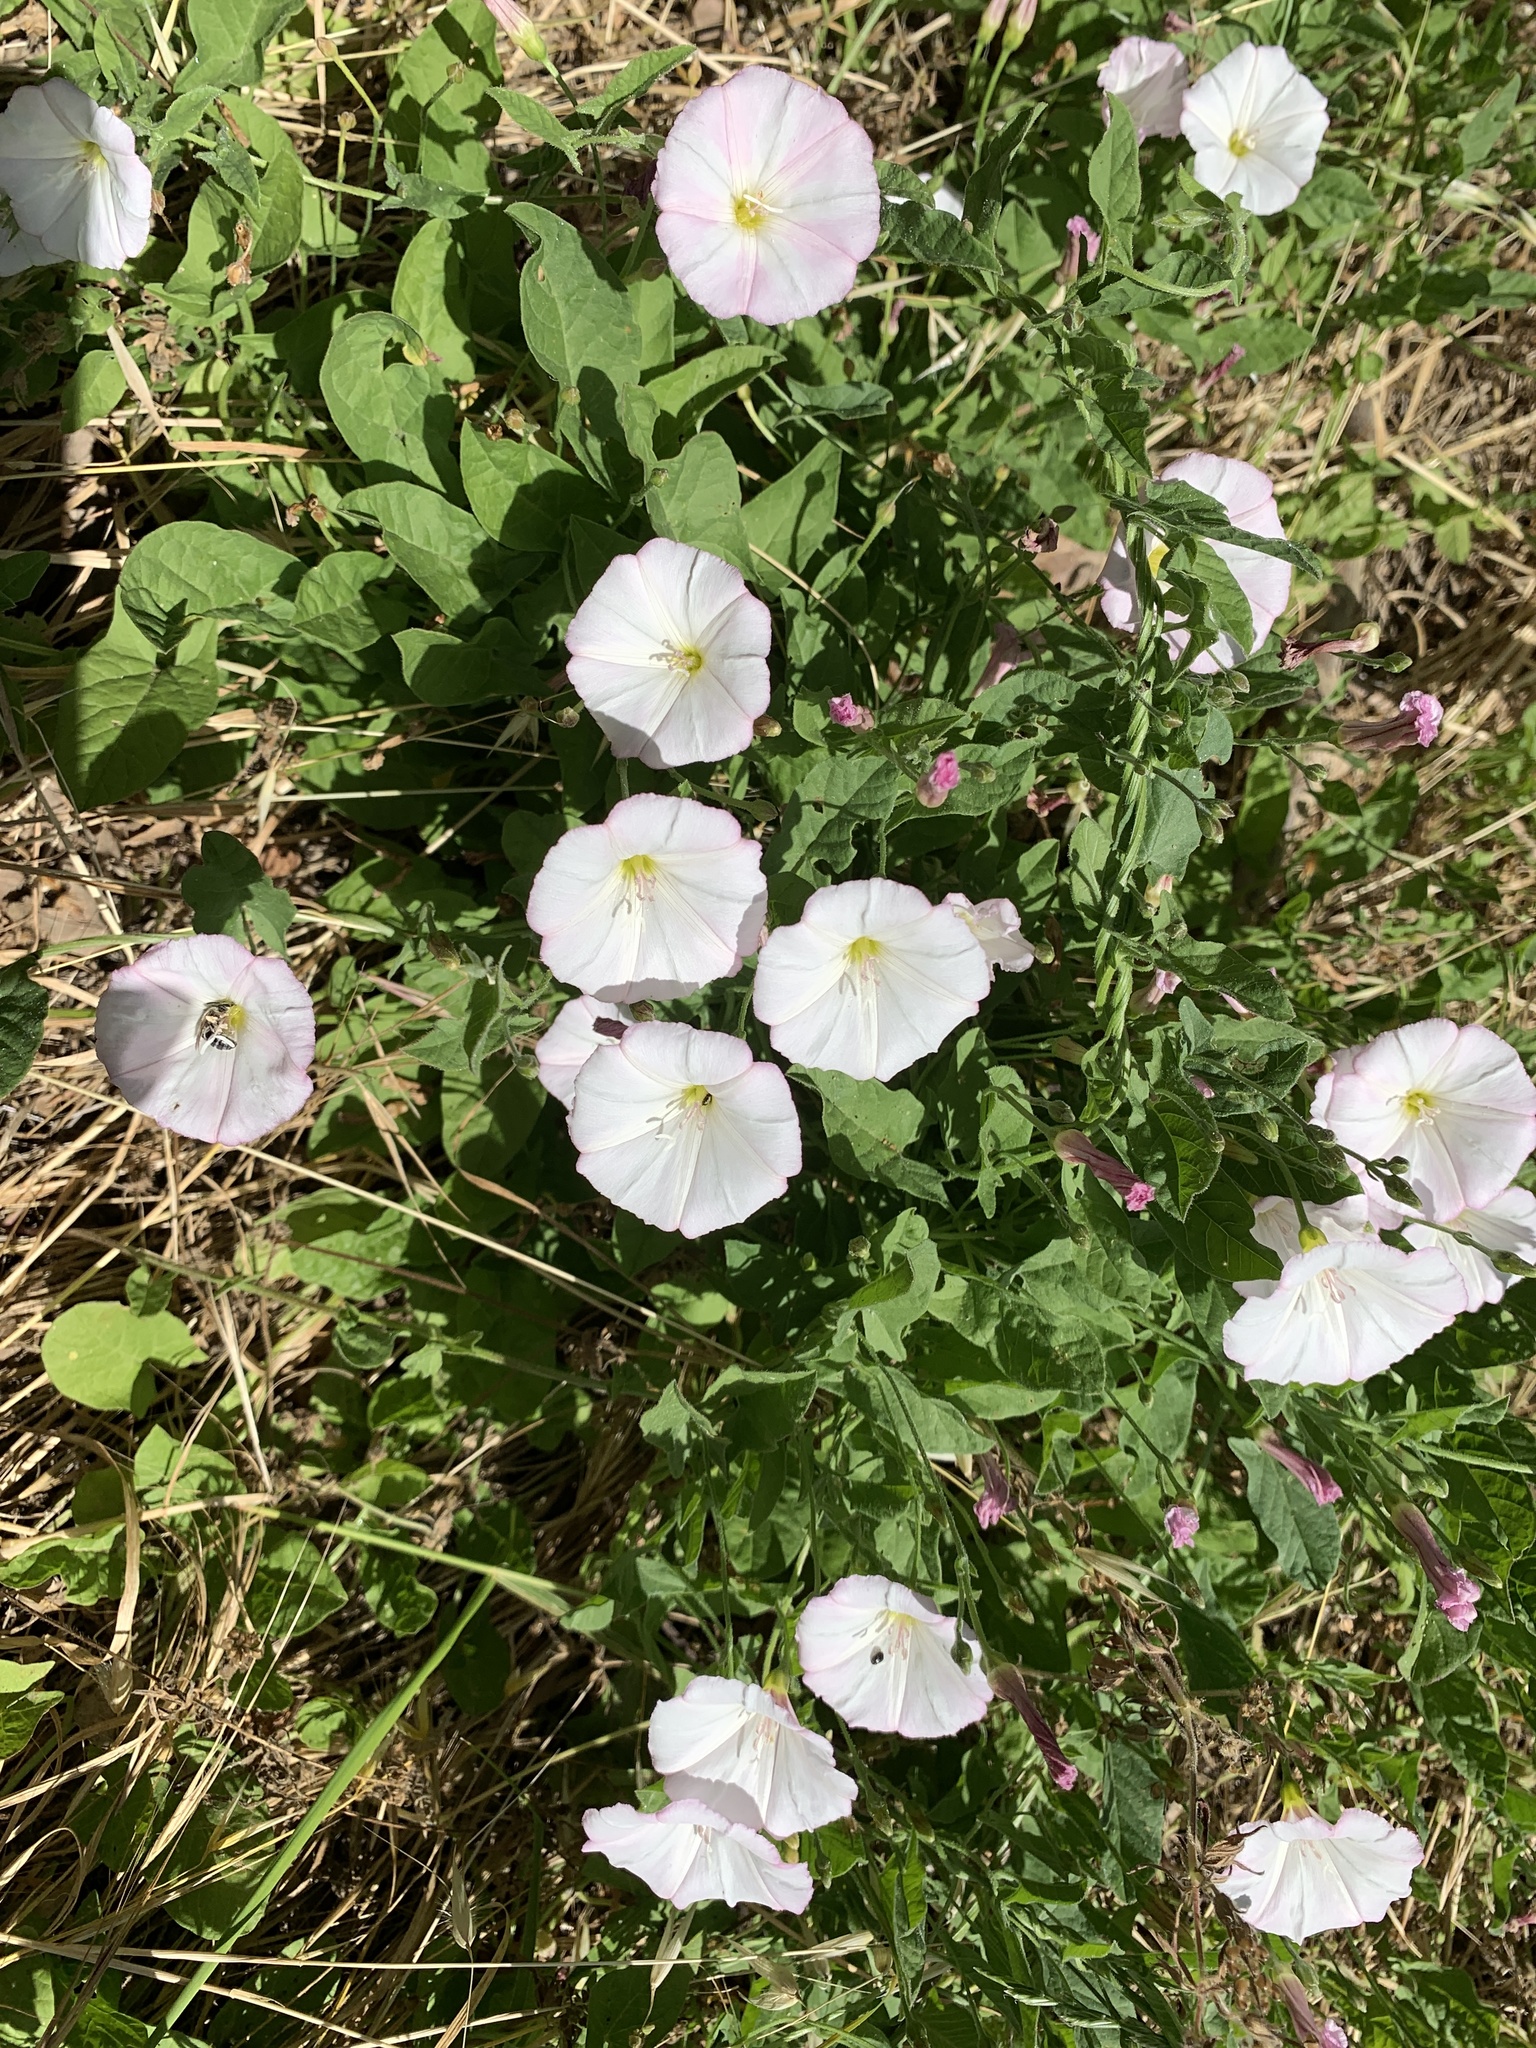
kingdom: Plantae
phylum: Tracheophyta
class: Magnoliopsida
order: Solanales
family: Convolvulaceae
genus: Convolvulus
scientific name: Convolvulus arvensis
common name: Field bindweed
